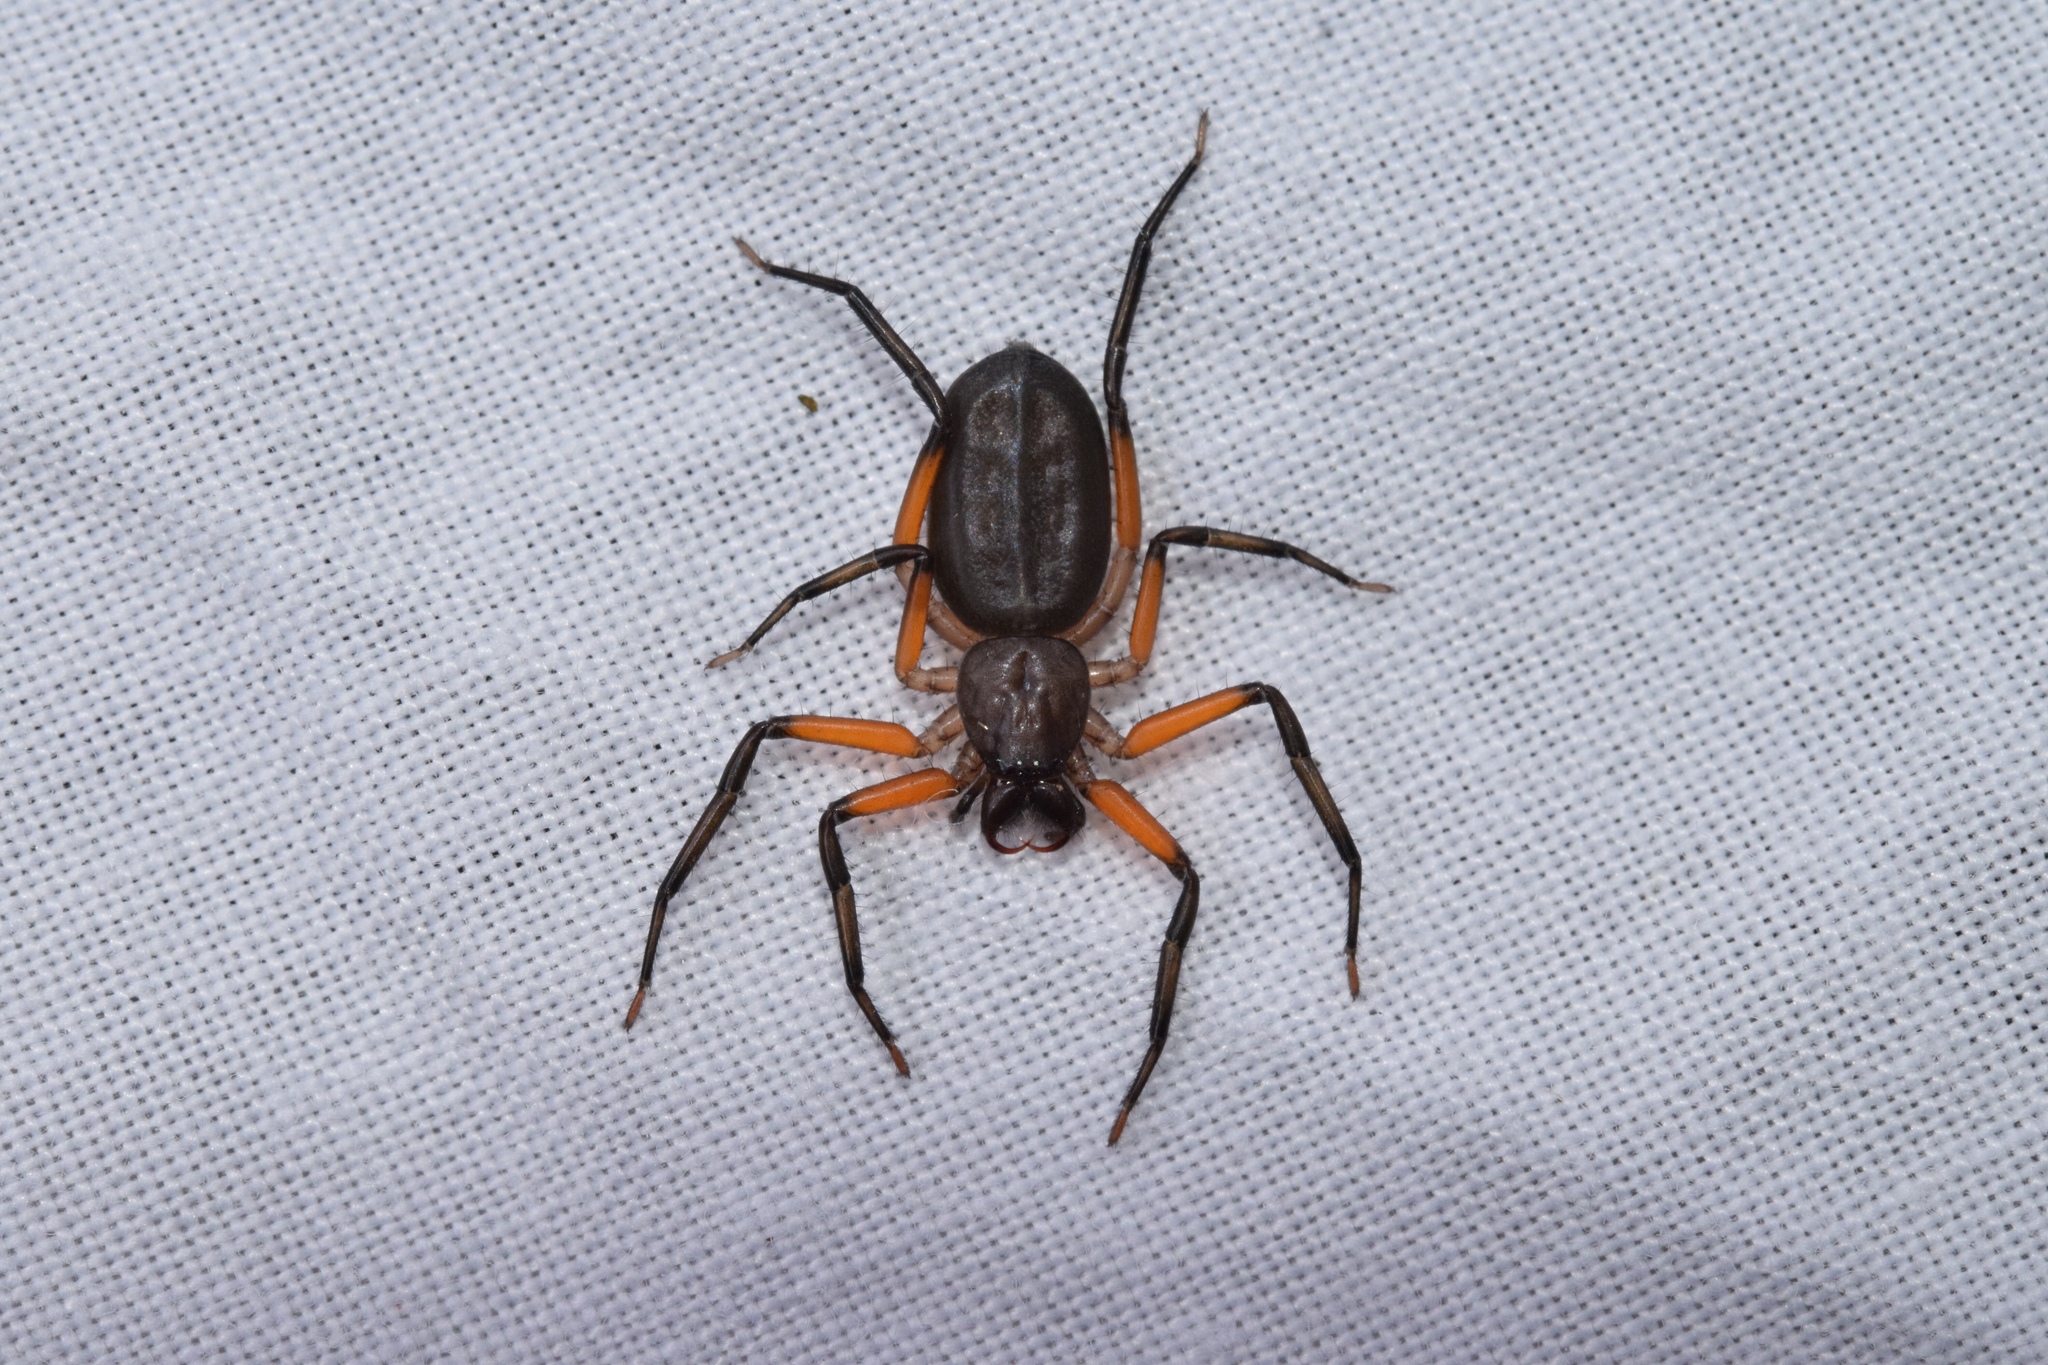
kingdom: Animalia
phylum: Arthropoda
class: Arachnida
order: Araneae
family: Trochanteriidae
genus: Platyoides
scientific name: Platyoides walteri
